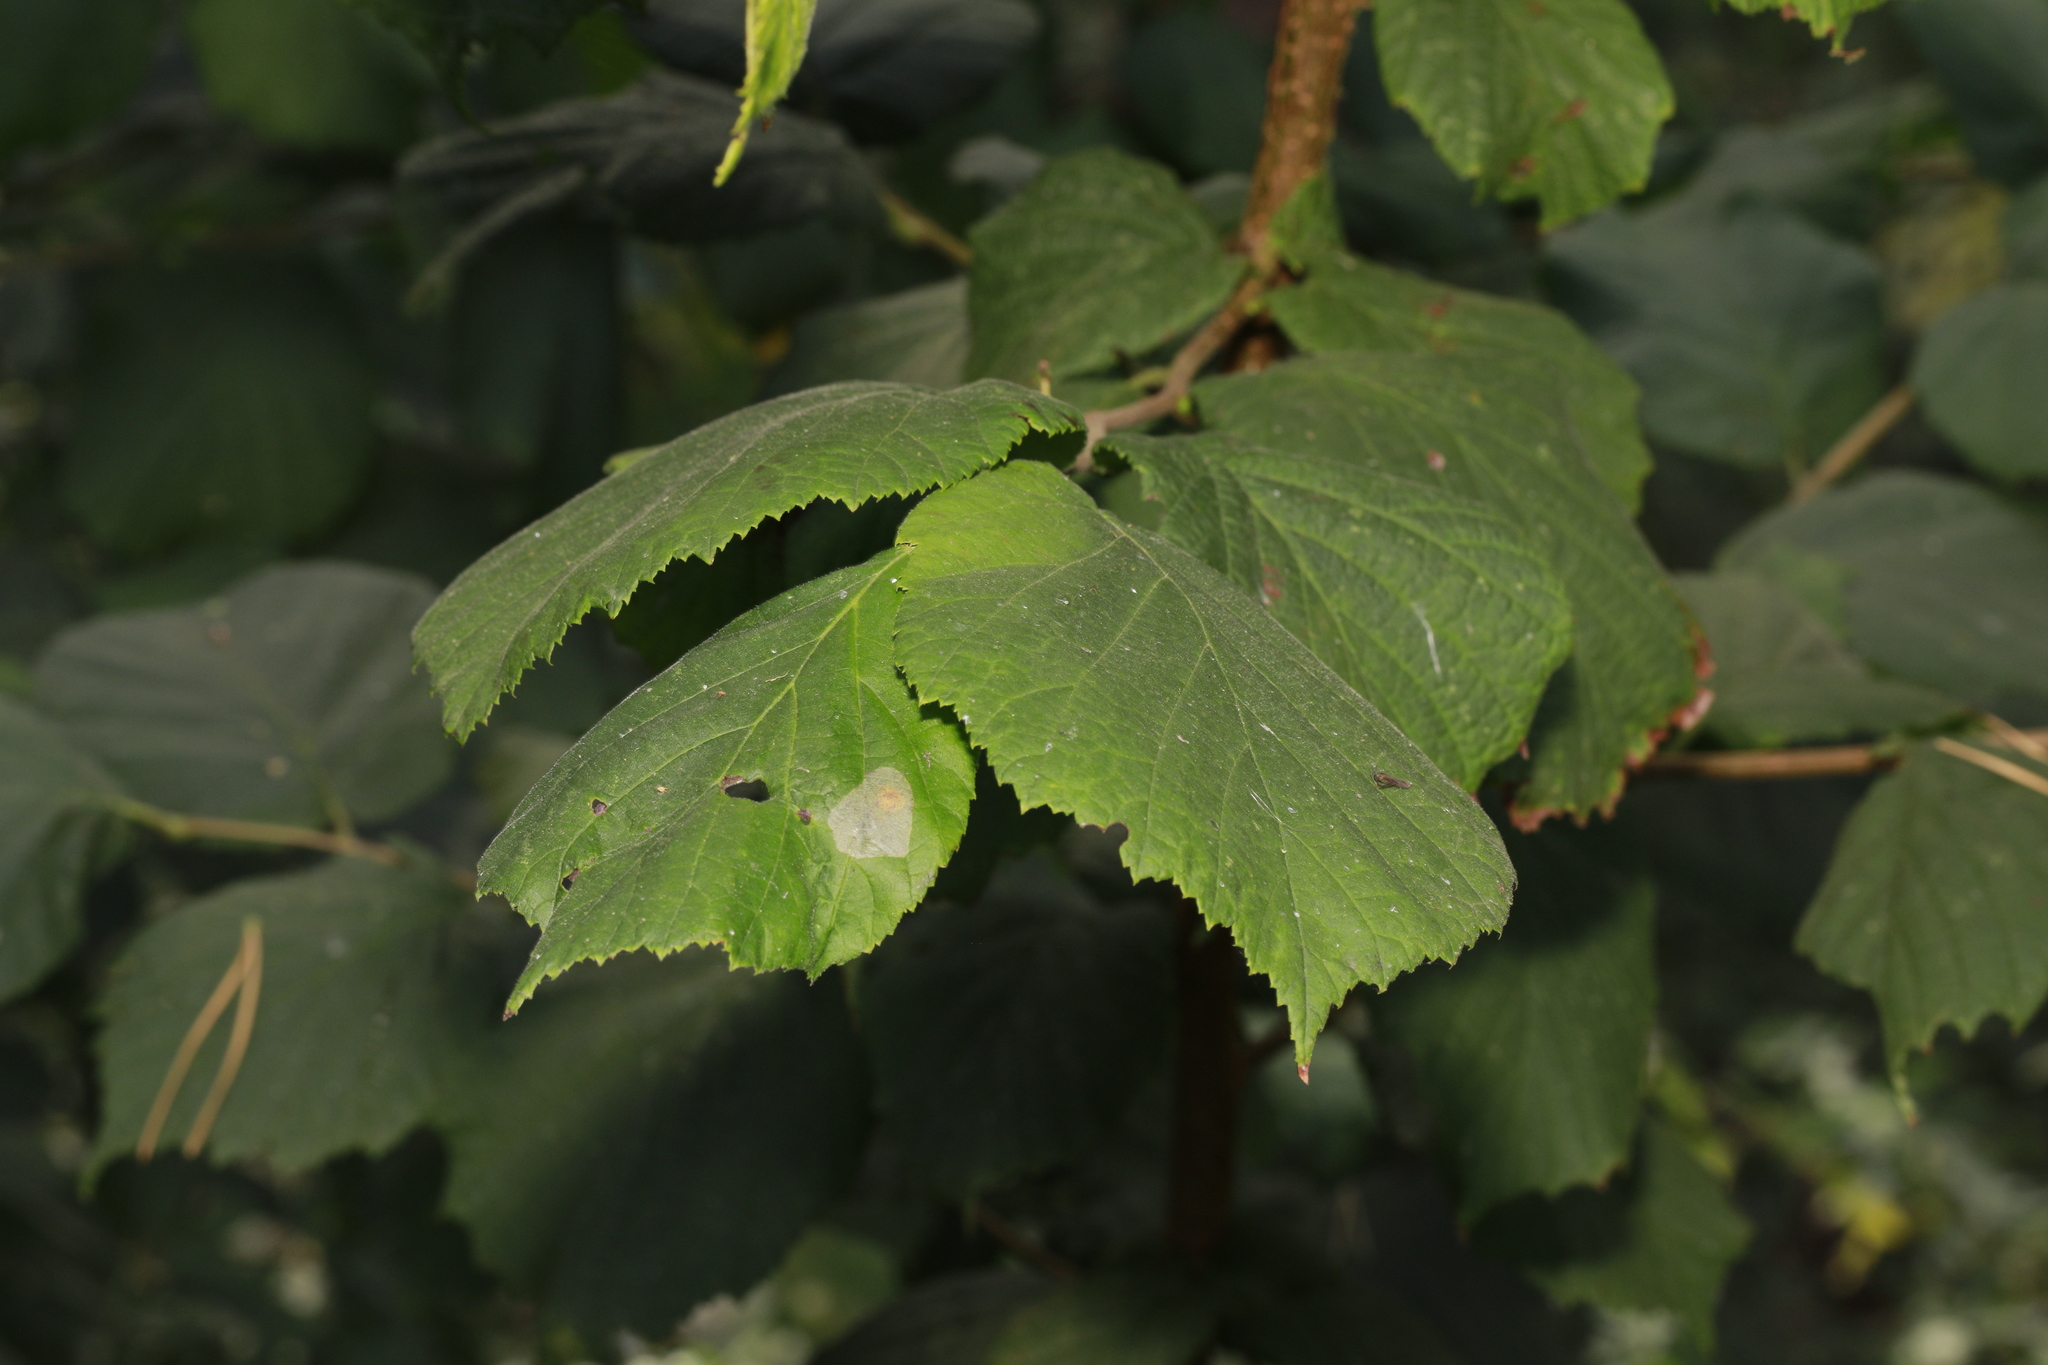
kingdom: Plantae
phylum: Tracheophyta
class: Magnoliopsida
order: Fagales
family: Betulaceae
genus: Corylus
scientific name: Corylus avellana
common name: European hazel
